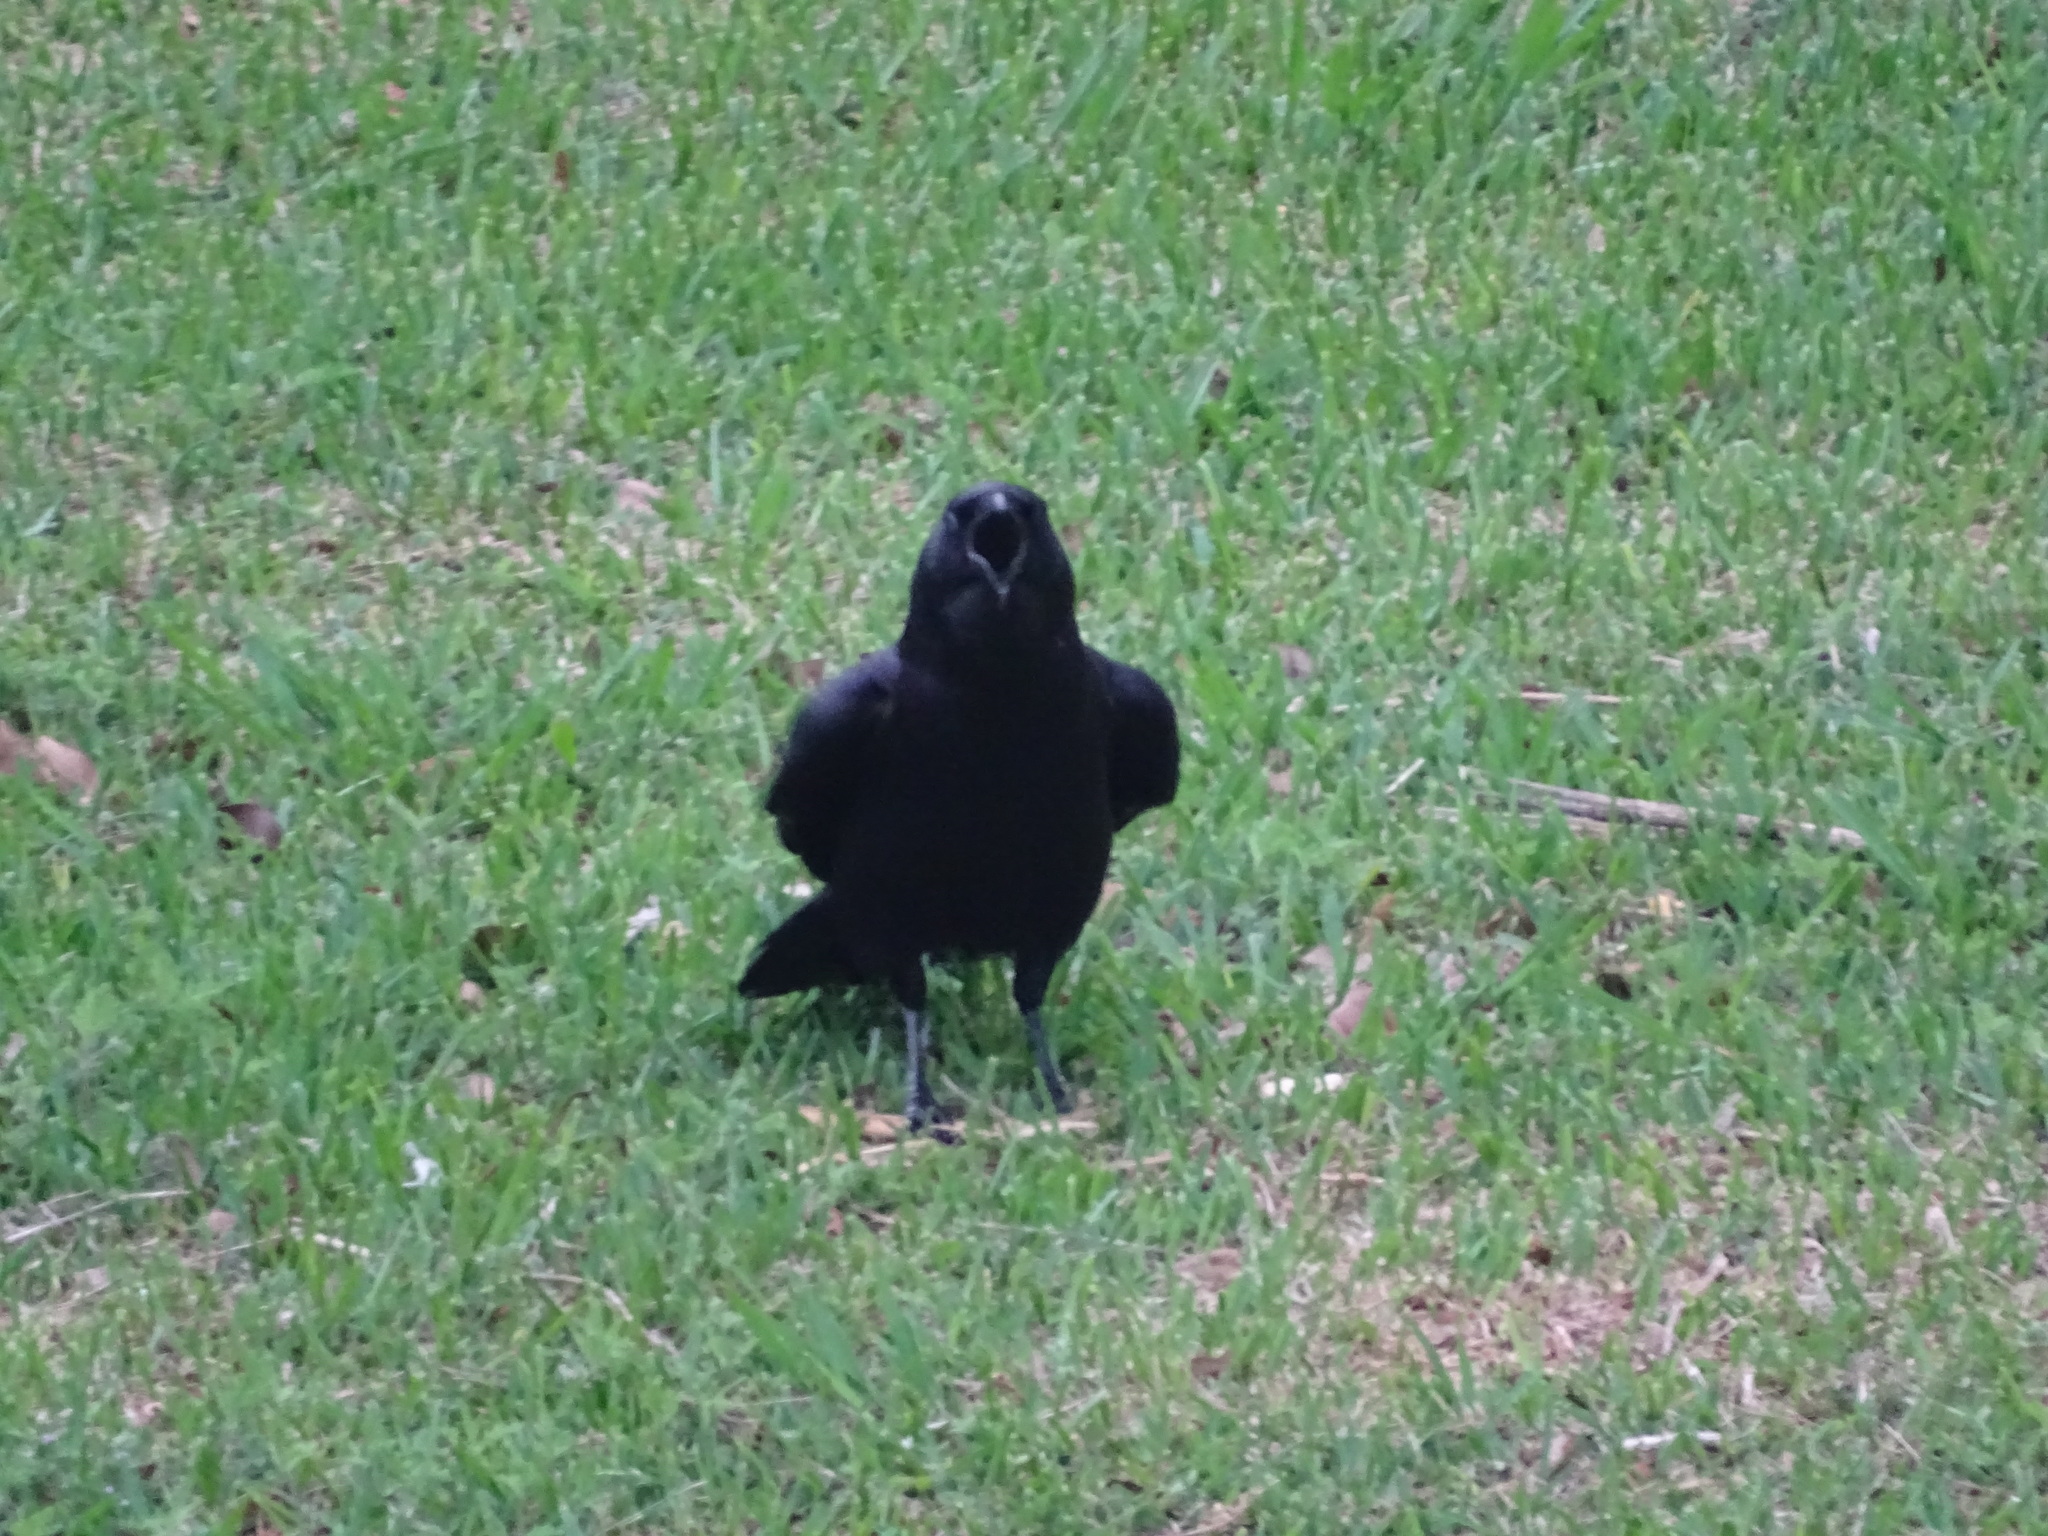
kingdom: Animalia
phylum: Chordata
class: Aves
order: Passeriformes
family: Corvidae
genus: Corvus
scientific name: Corvus brachyrhynchos
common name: American crow
